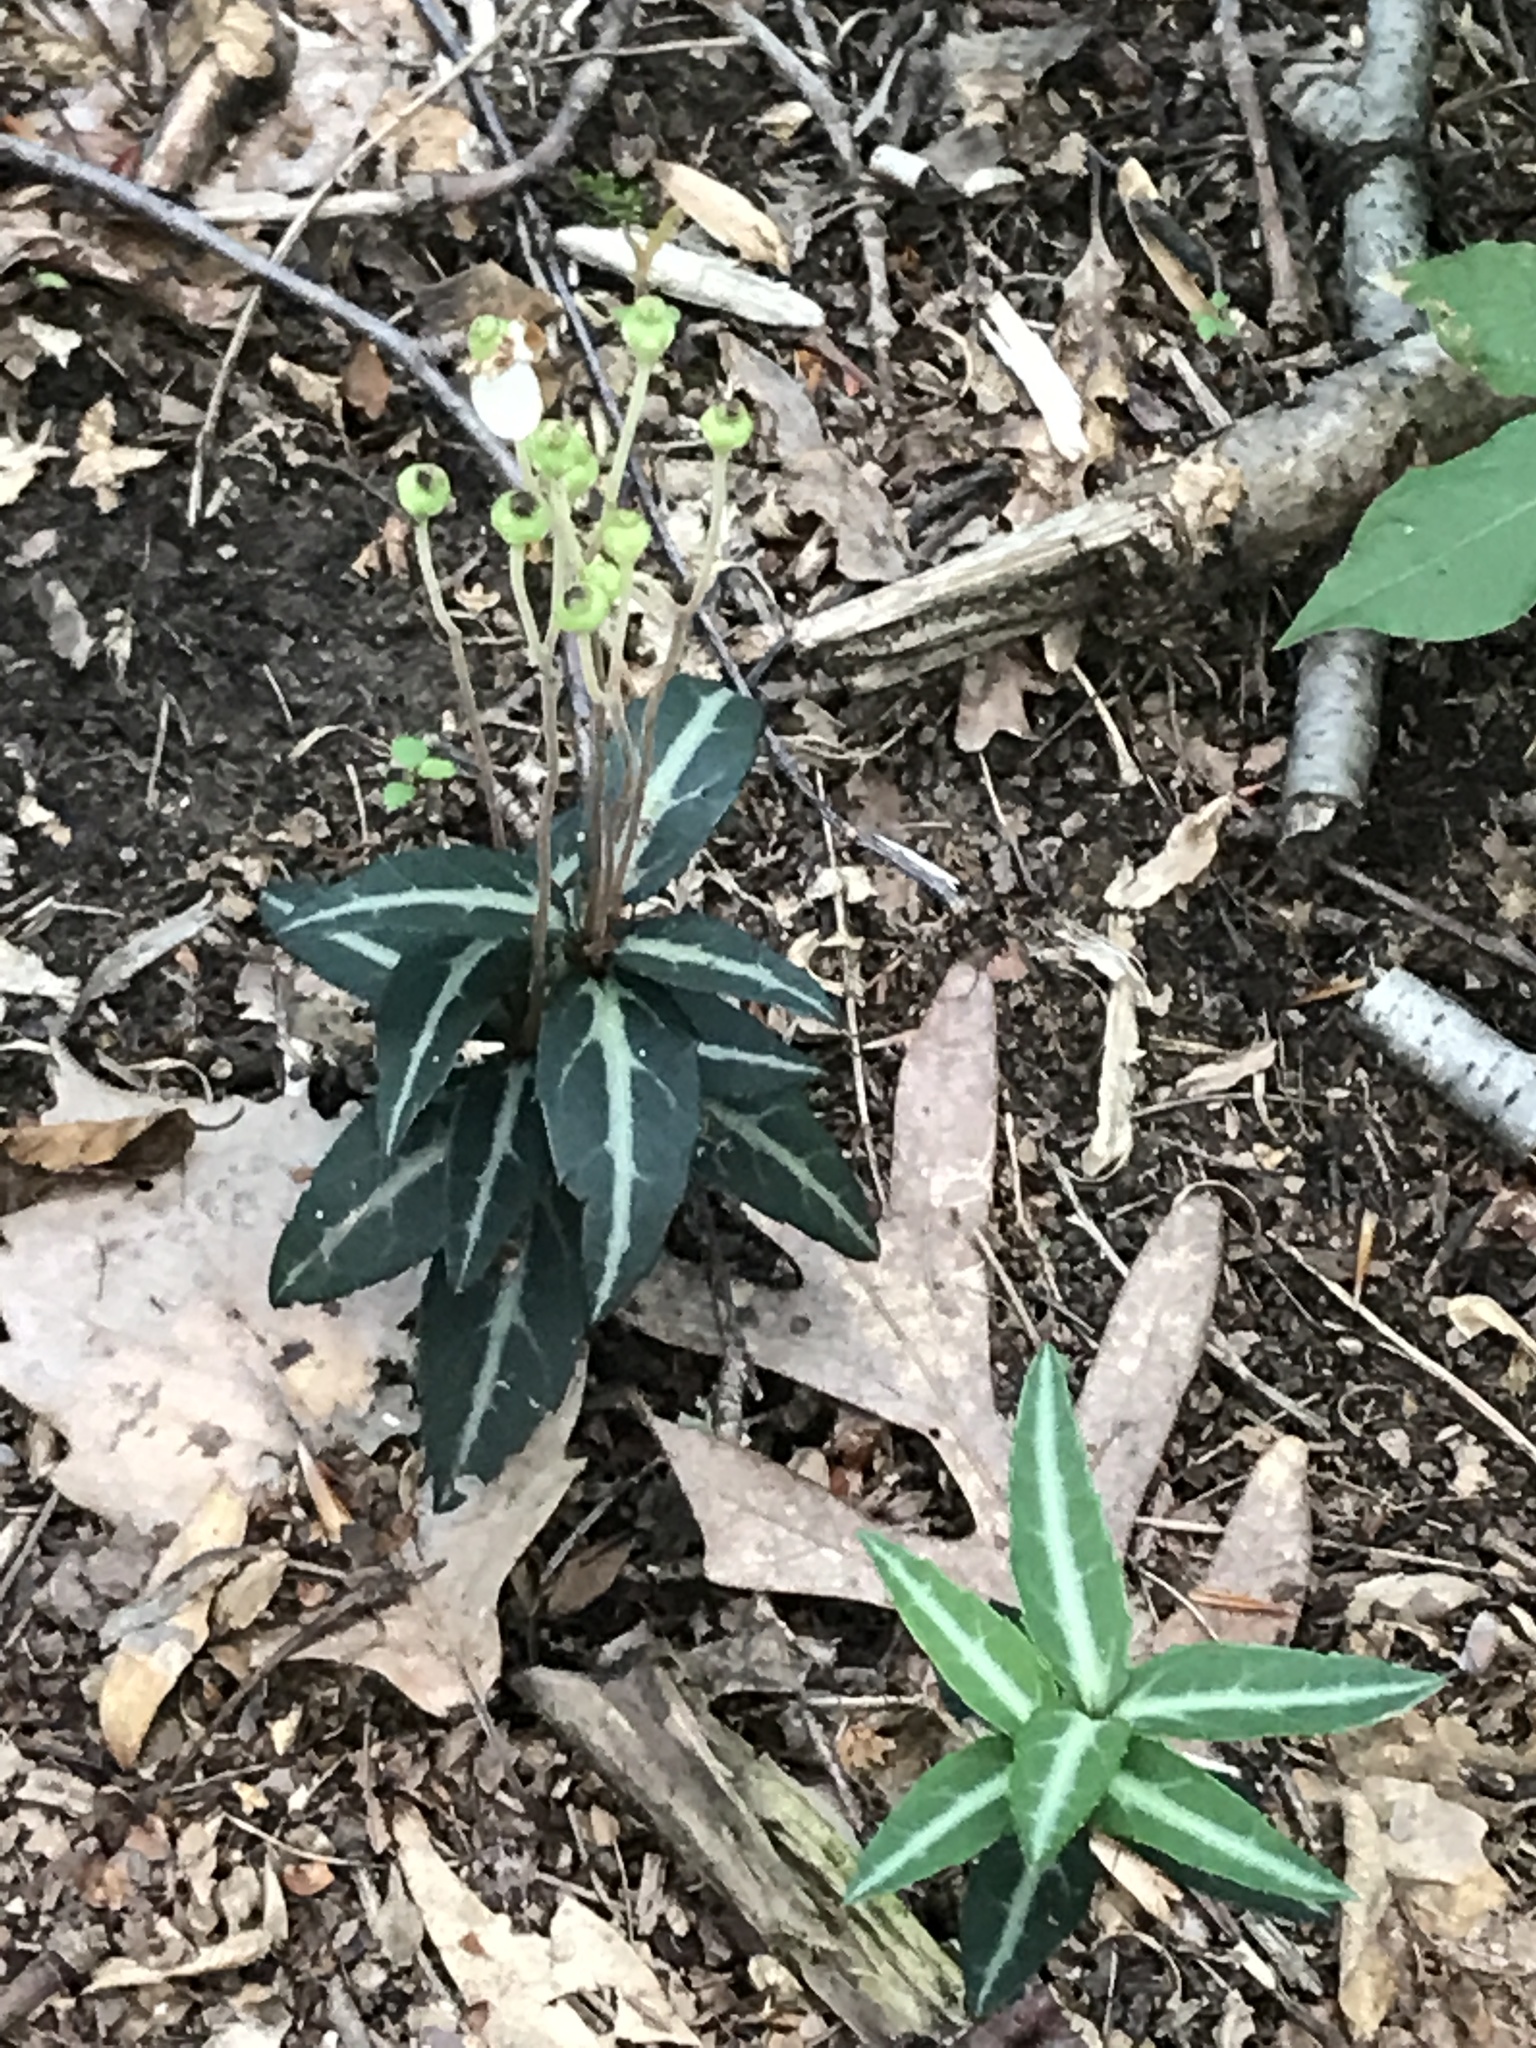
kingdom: Plantae
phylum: Tracheophyta
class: Magnoliopsida
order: Ericales
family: Ericaceae
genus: Chimaphila
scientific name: Chimaphila maculata
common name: Spotted pipsissewa
